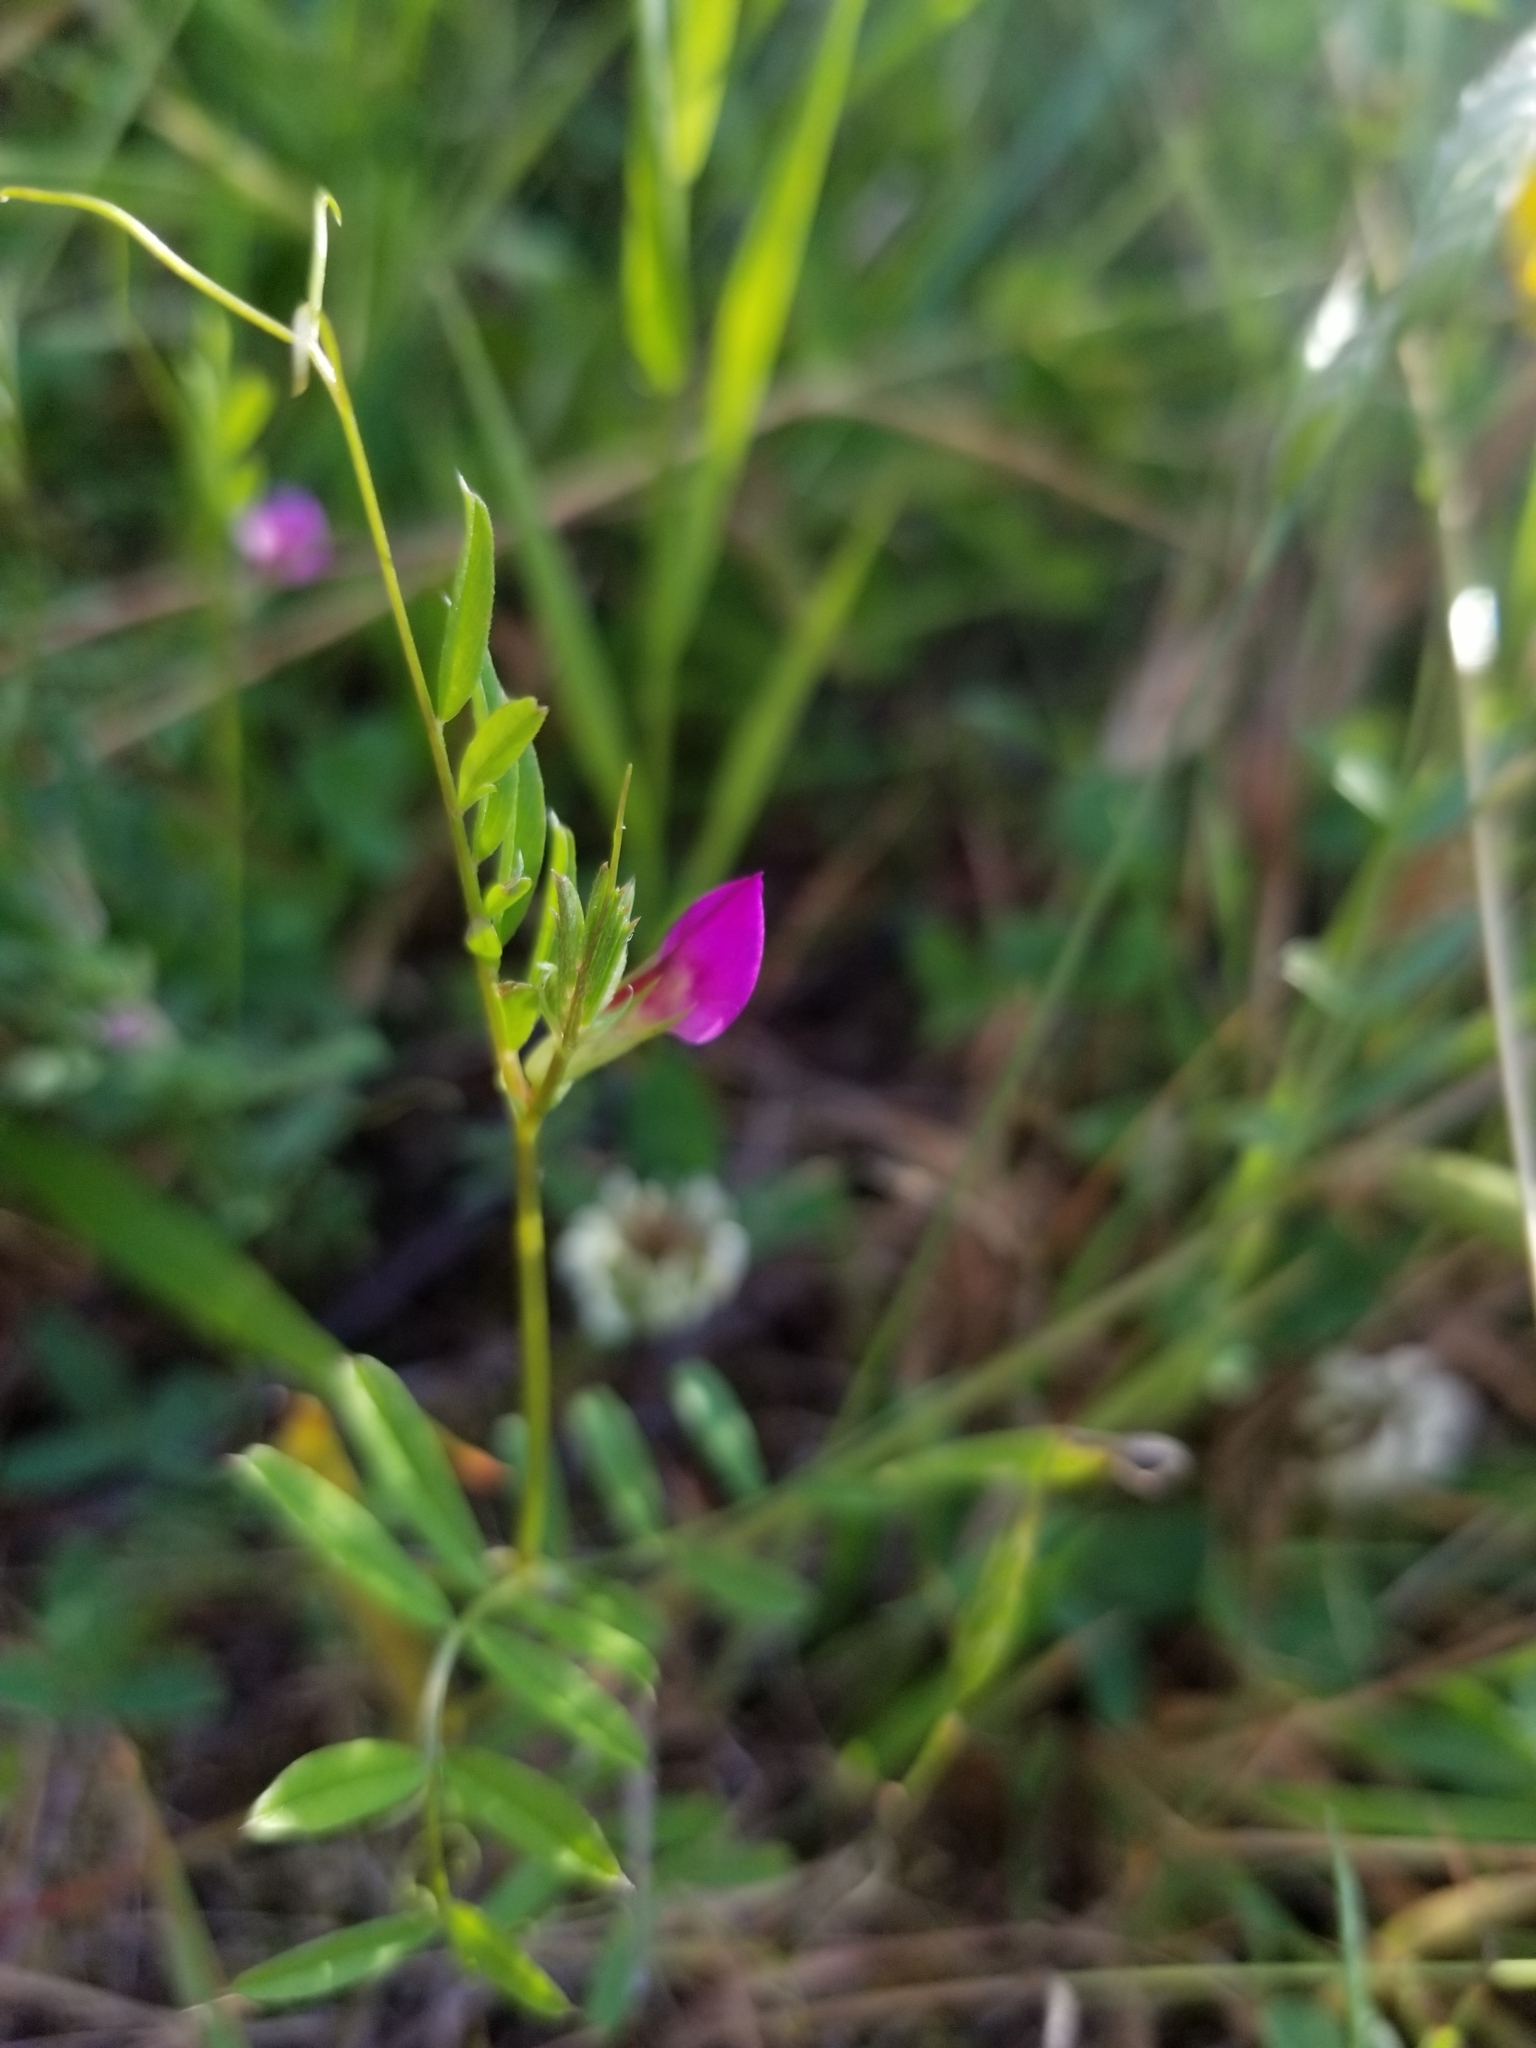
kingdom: Plantae
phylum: Tracheophyta
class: Magnoliopsida
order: Fabales
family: Fabaceae
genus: Vicia
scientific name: Vicia sativa
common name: Garden vetch
